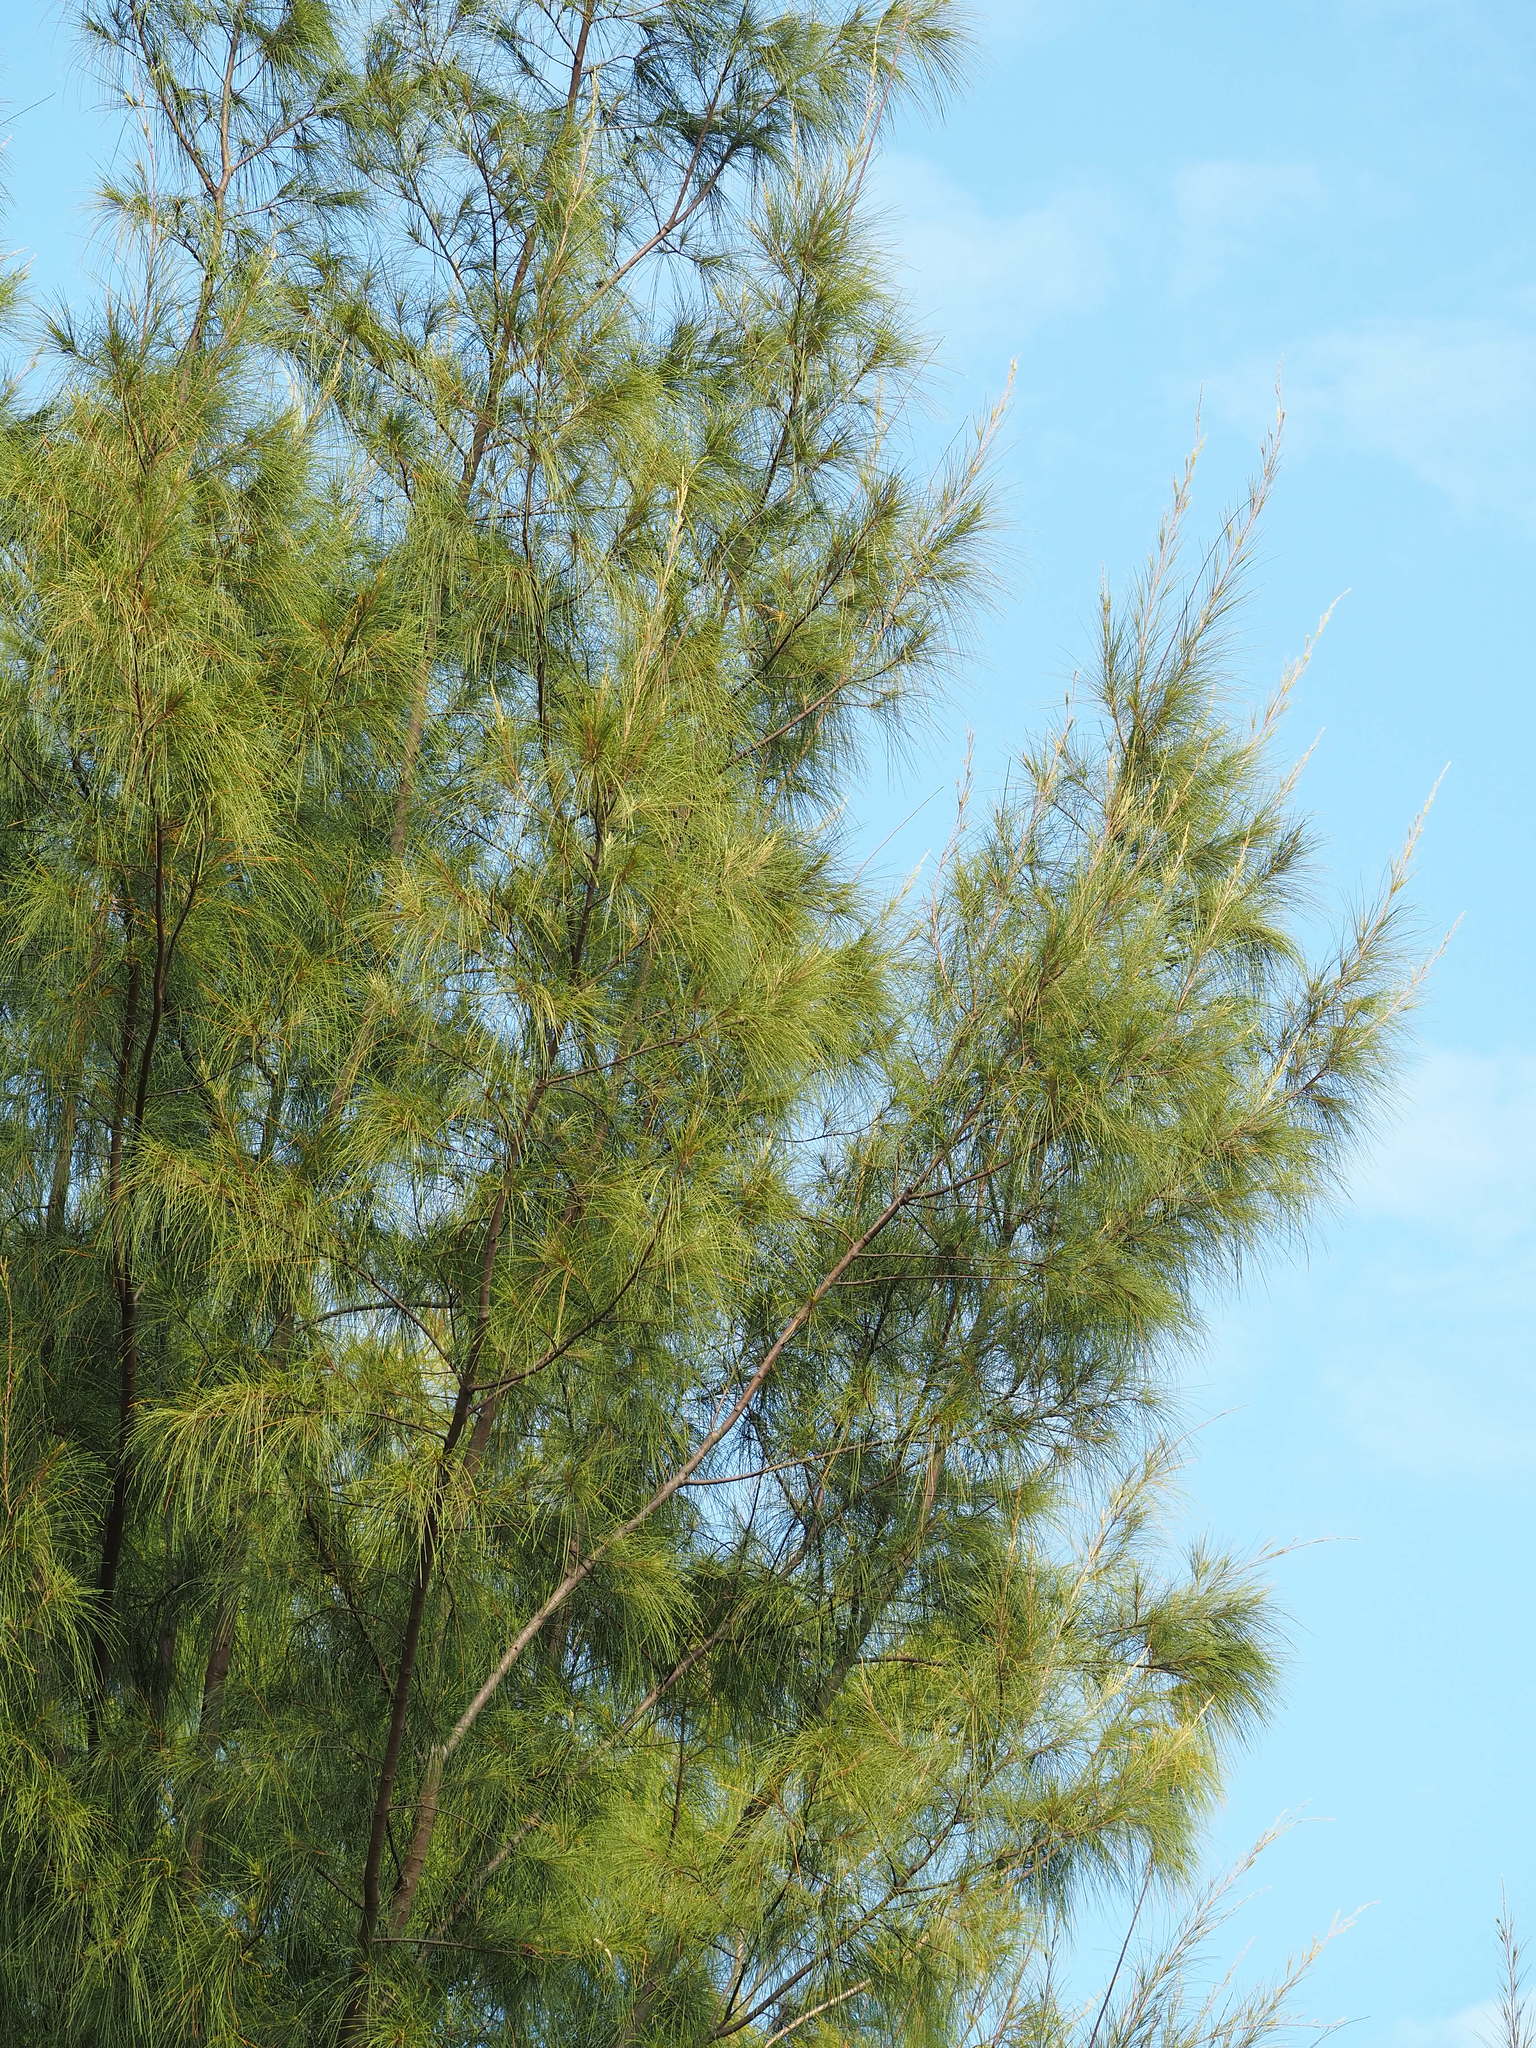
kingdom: Plantae
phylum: Tracheophyta
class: Magnoliopsida
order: Fagales
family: Casuarinaceae
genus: Casuarina
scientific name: Casuarina equisetifolia
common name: Beach sheoak
